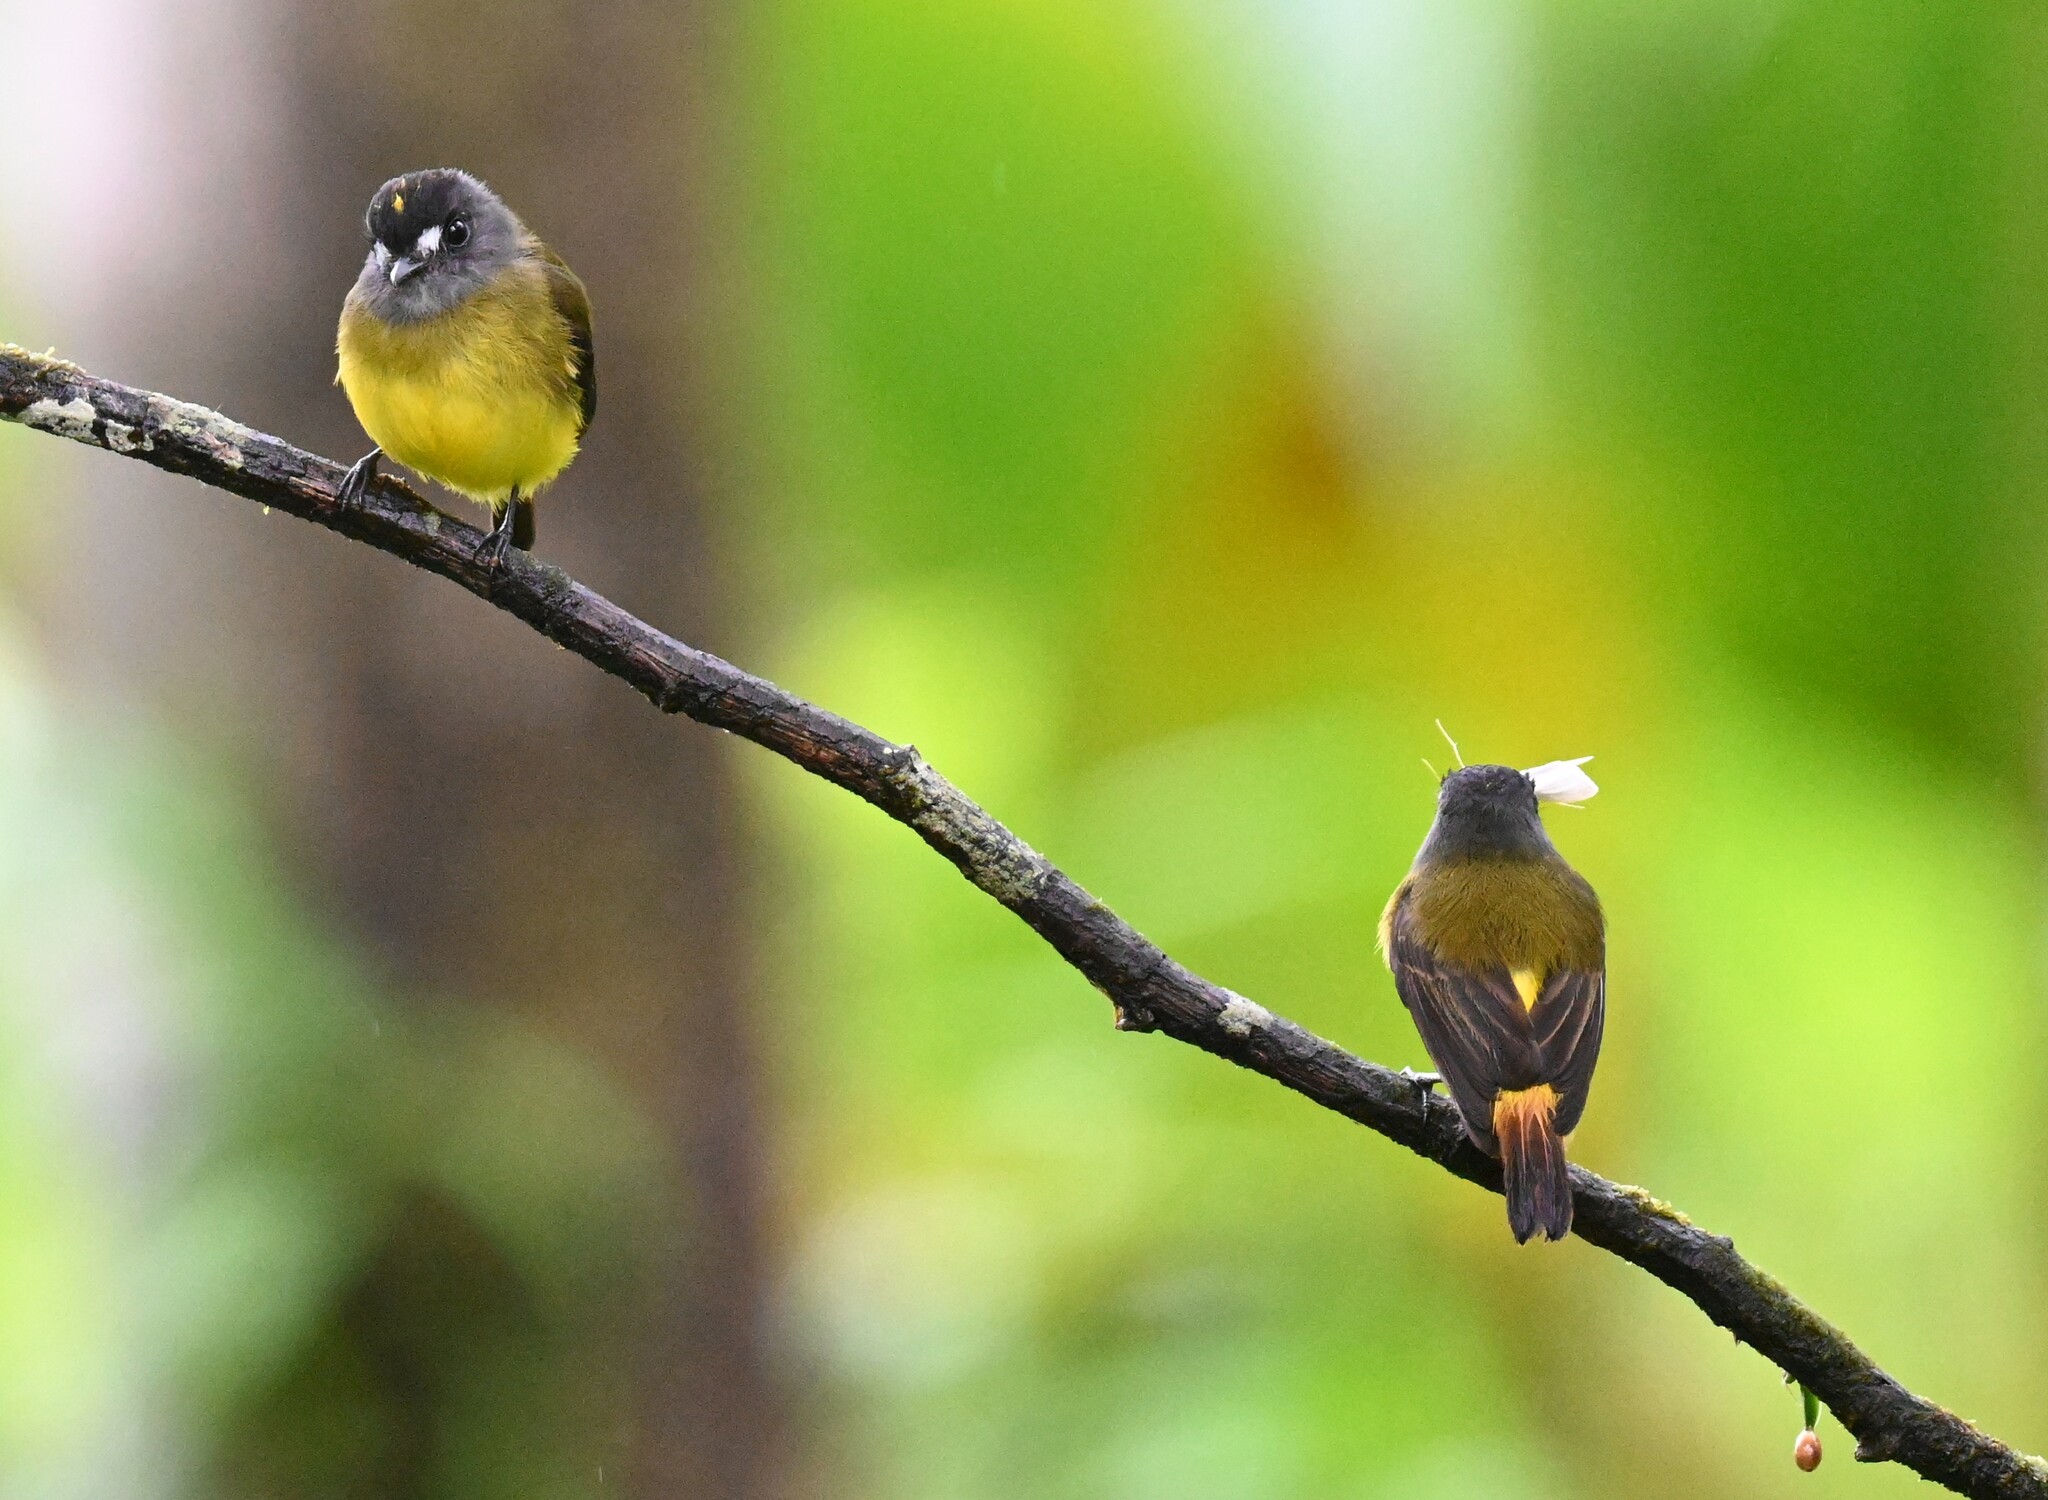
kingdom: Animalia
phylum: Chordata
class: Aves
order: Passeriformes
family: Tyrannidae
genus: Myiotriccus
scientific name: Myiotriccus ornatus
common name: Ornate flycatcher
